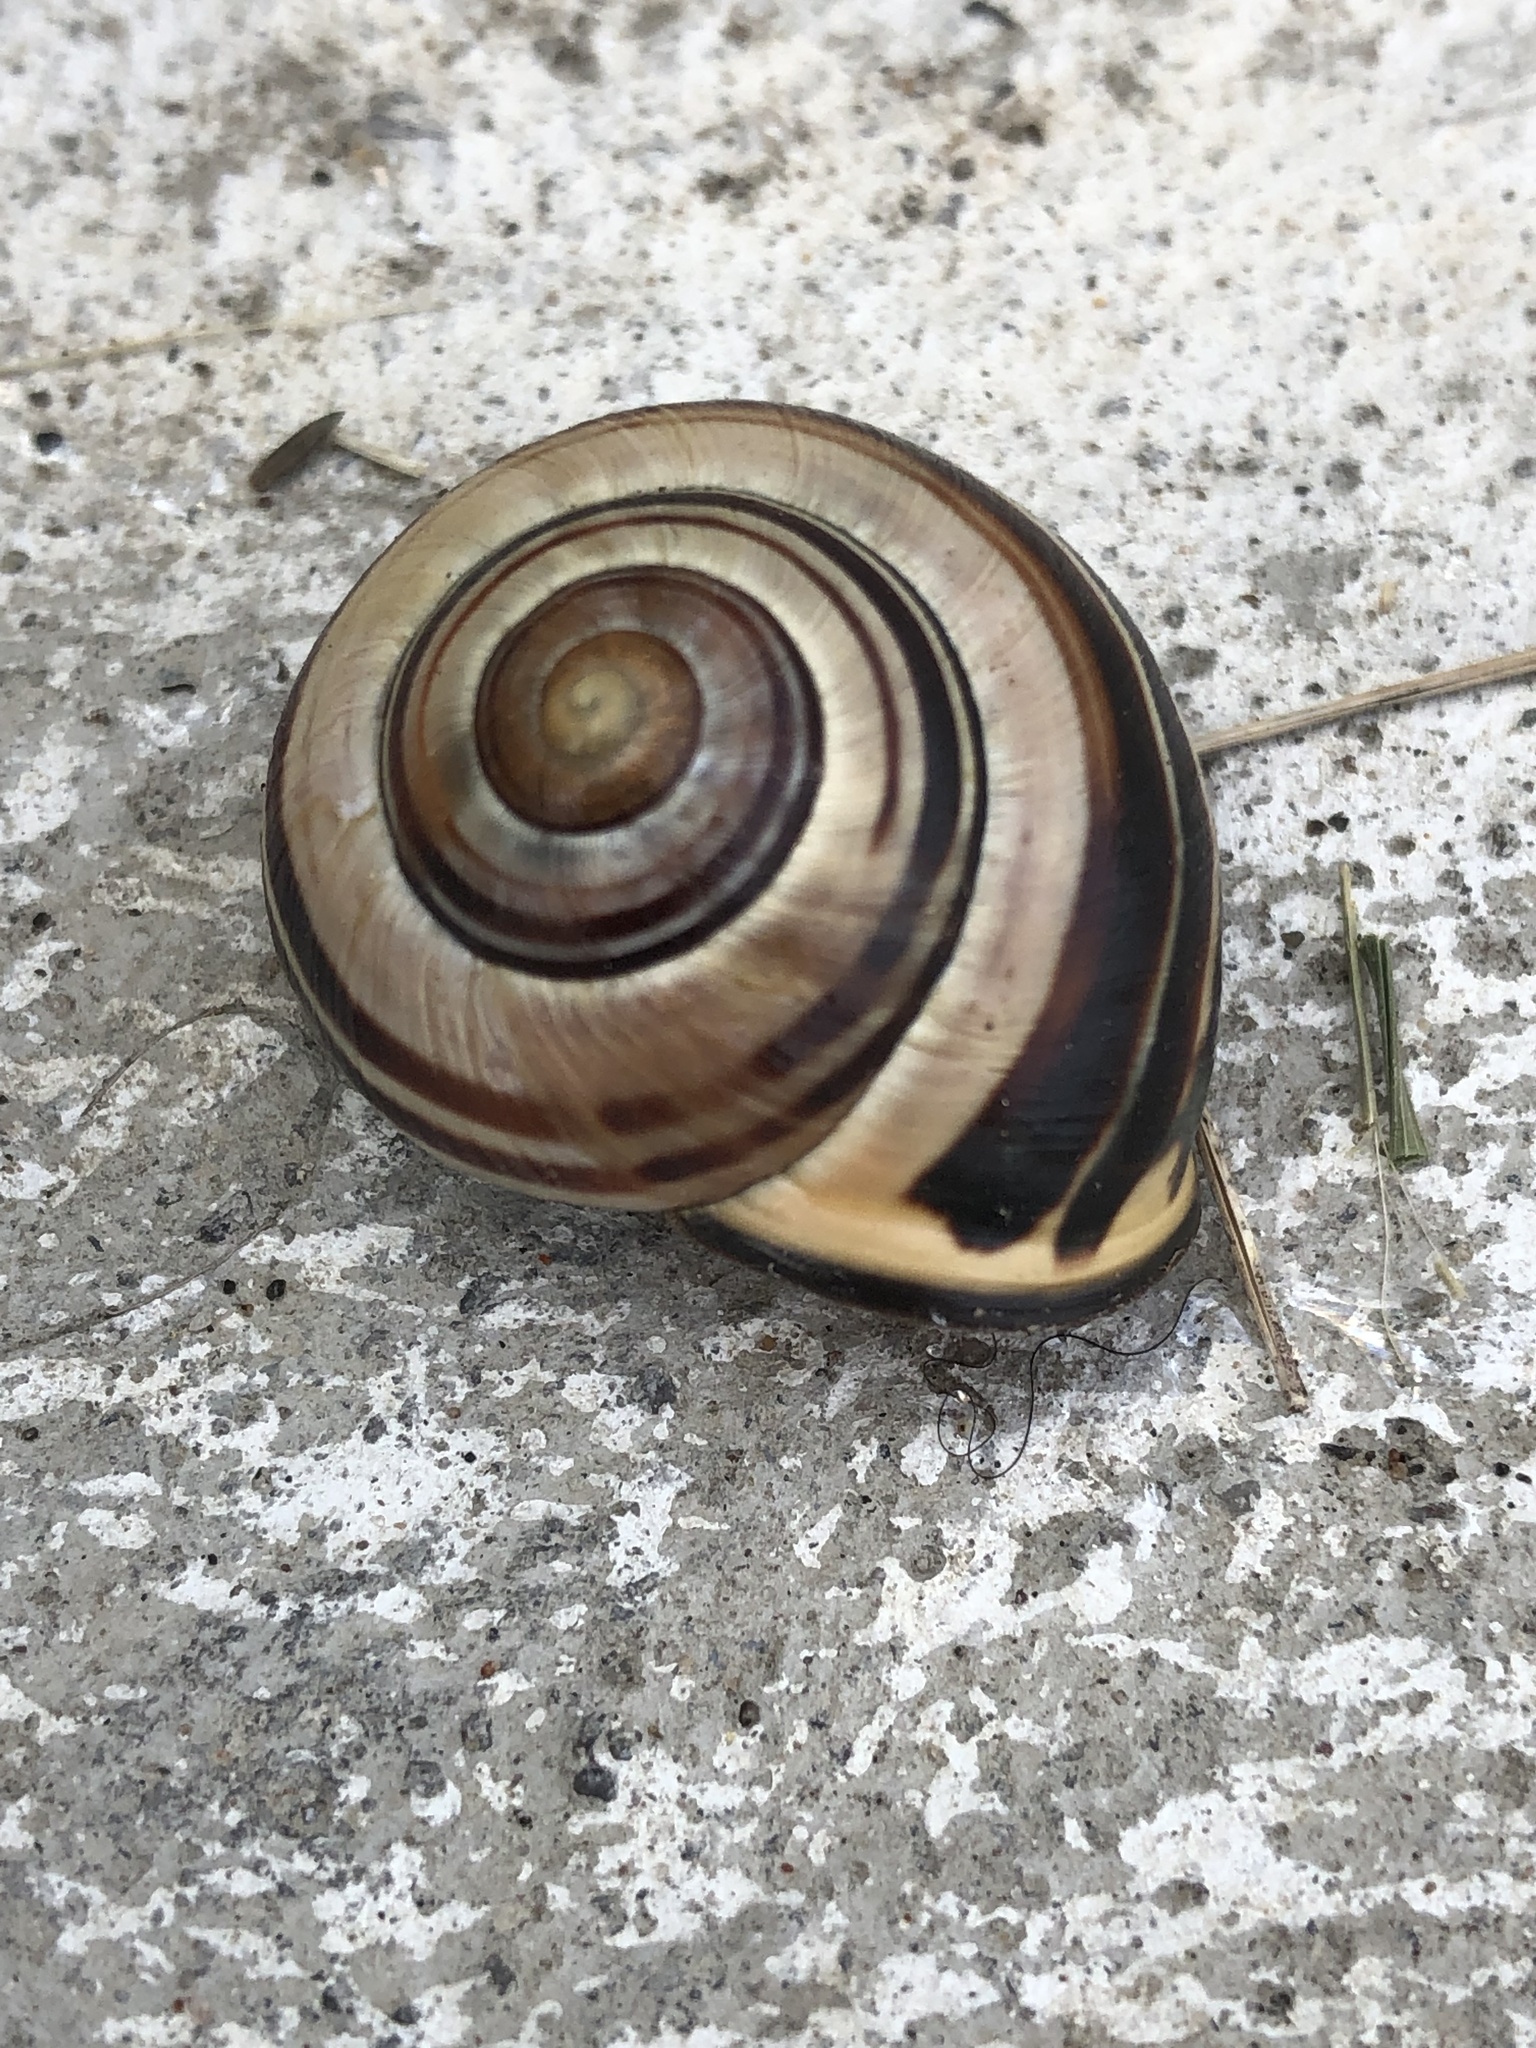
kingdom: Animalia
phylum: Mollusca
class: Gastropoda
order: Stylommatophora
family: Helicidae
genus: Cepaea
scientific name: Cepaea nemoralis
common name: Grovesnail
